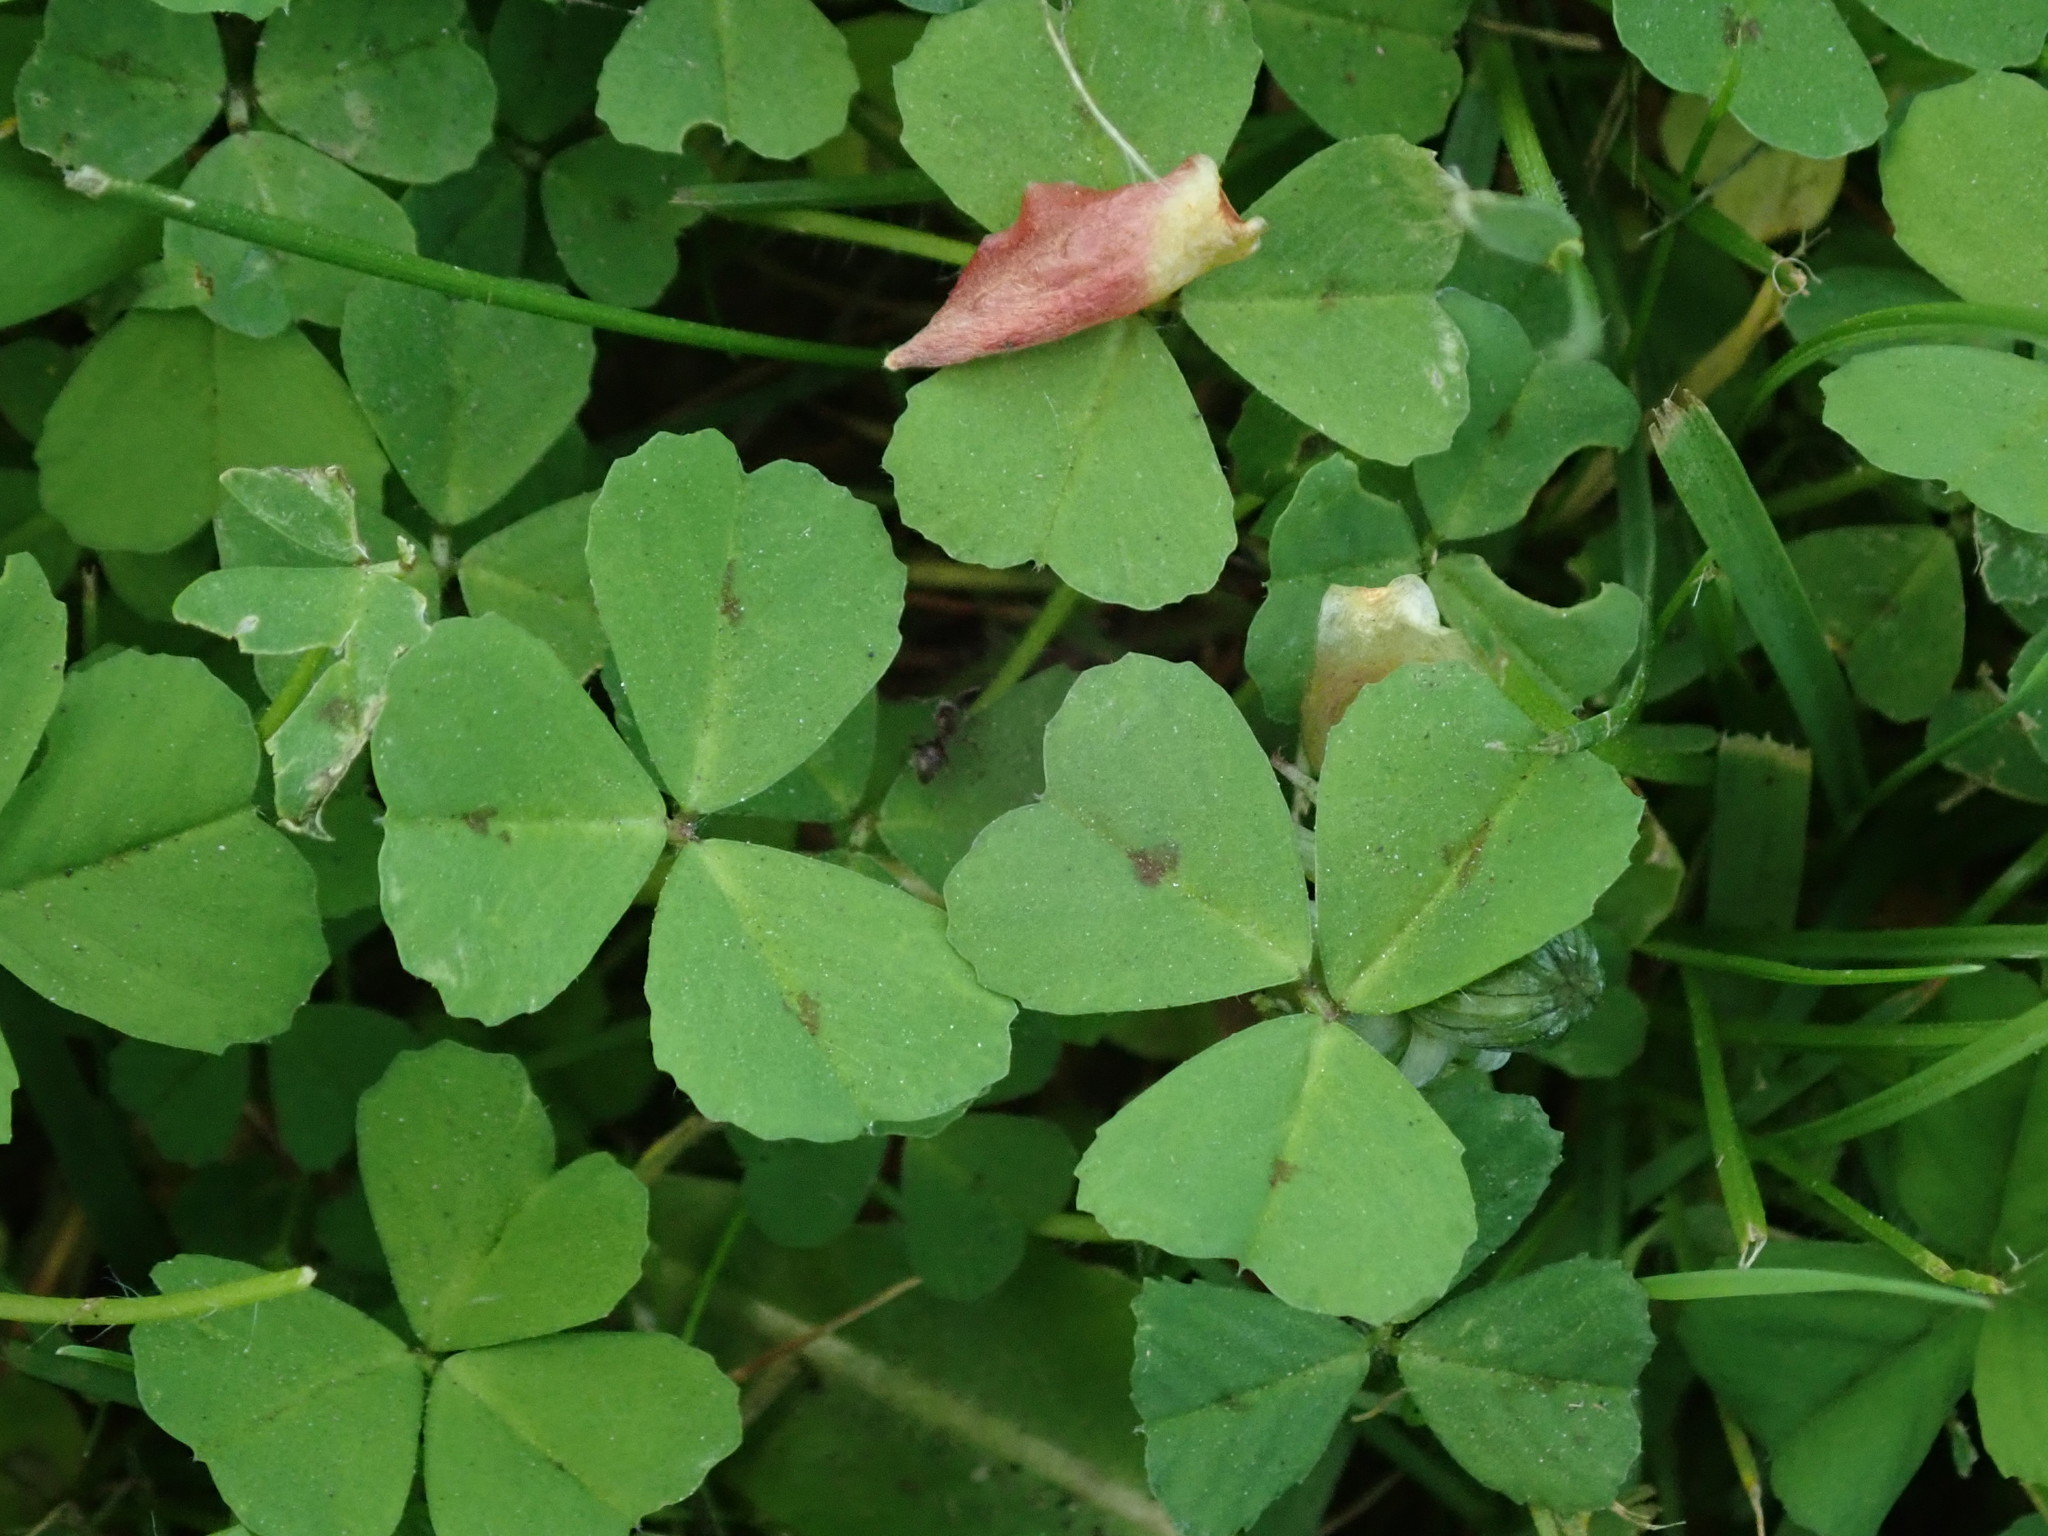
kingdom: Plantae
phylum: Tracheophyta
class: Magnoliopsida
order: Fabales
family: Fabaceae
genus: Medicago
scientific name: Medicago arabica
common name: Spotted medick
